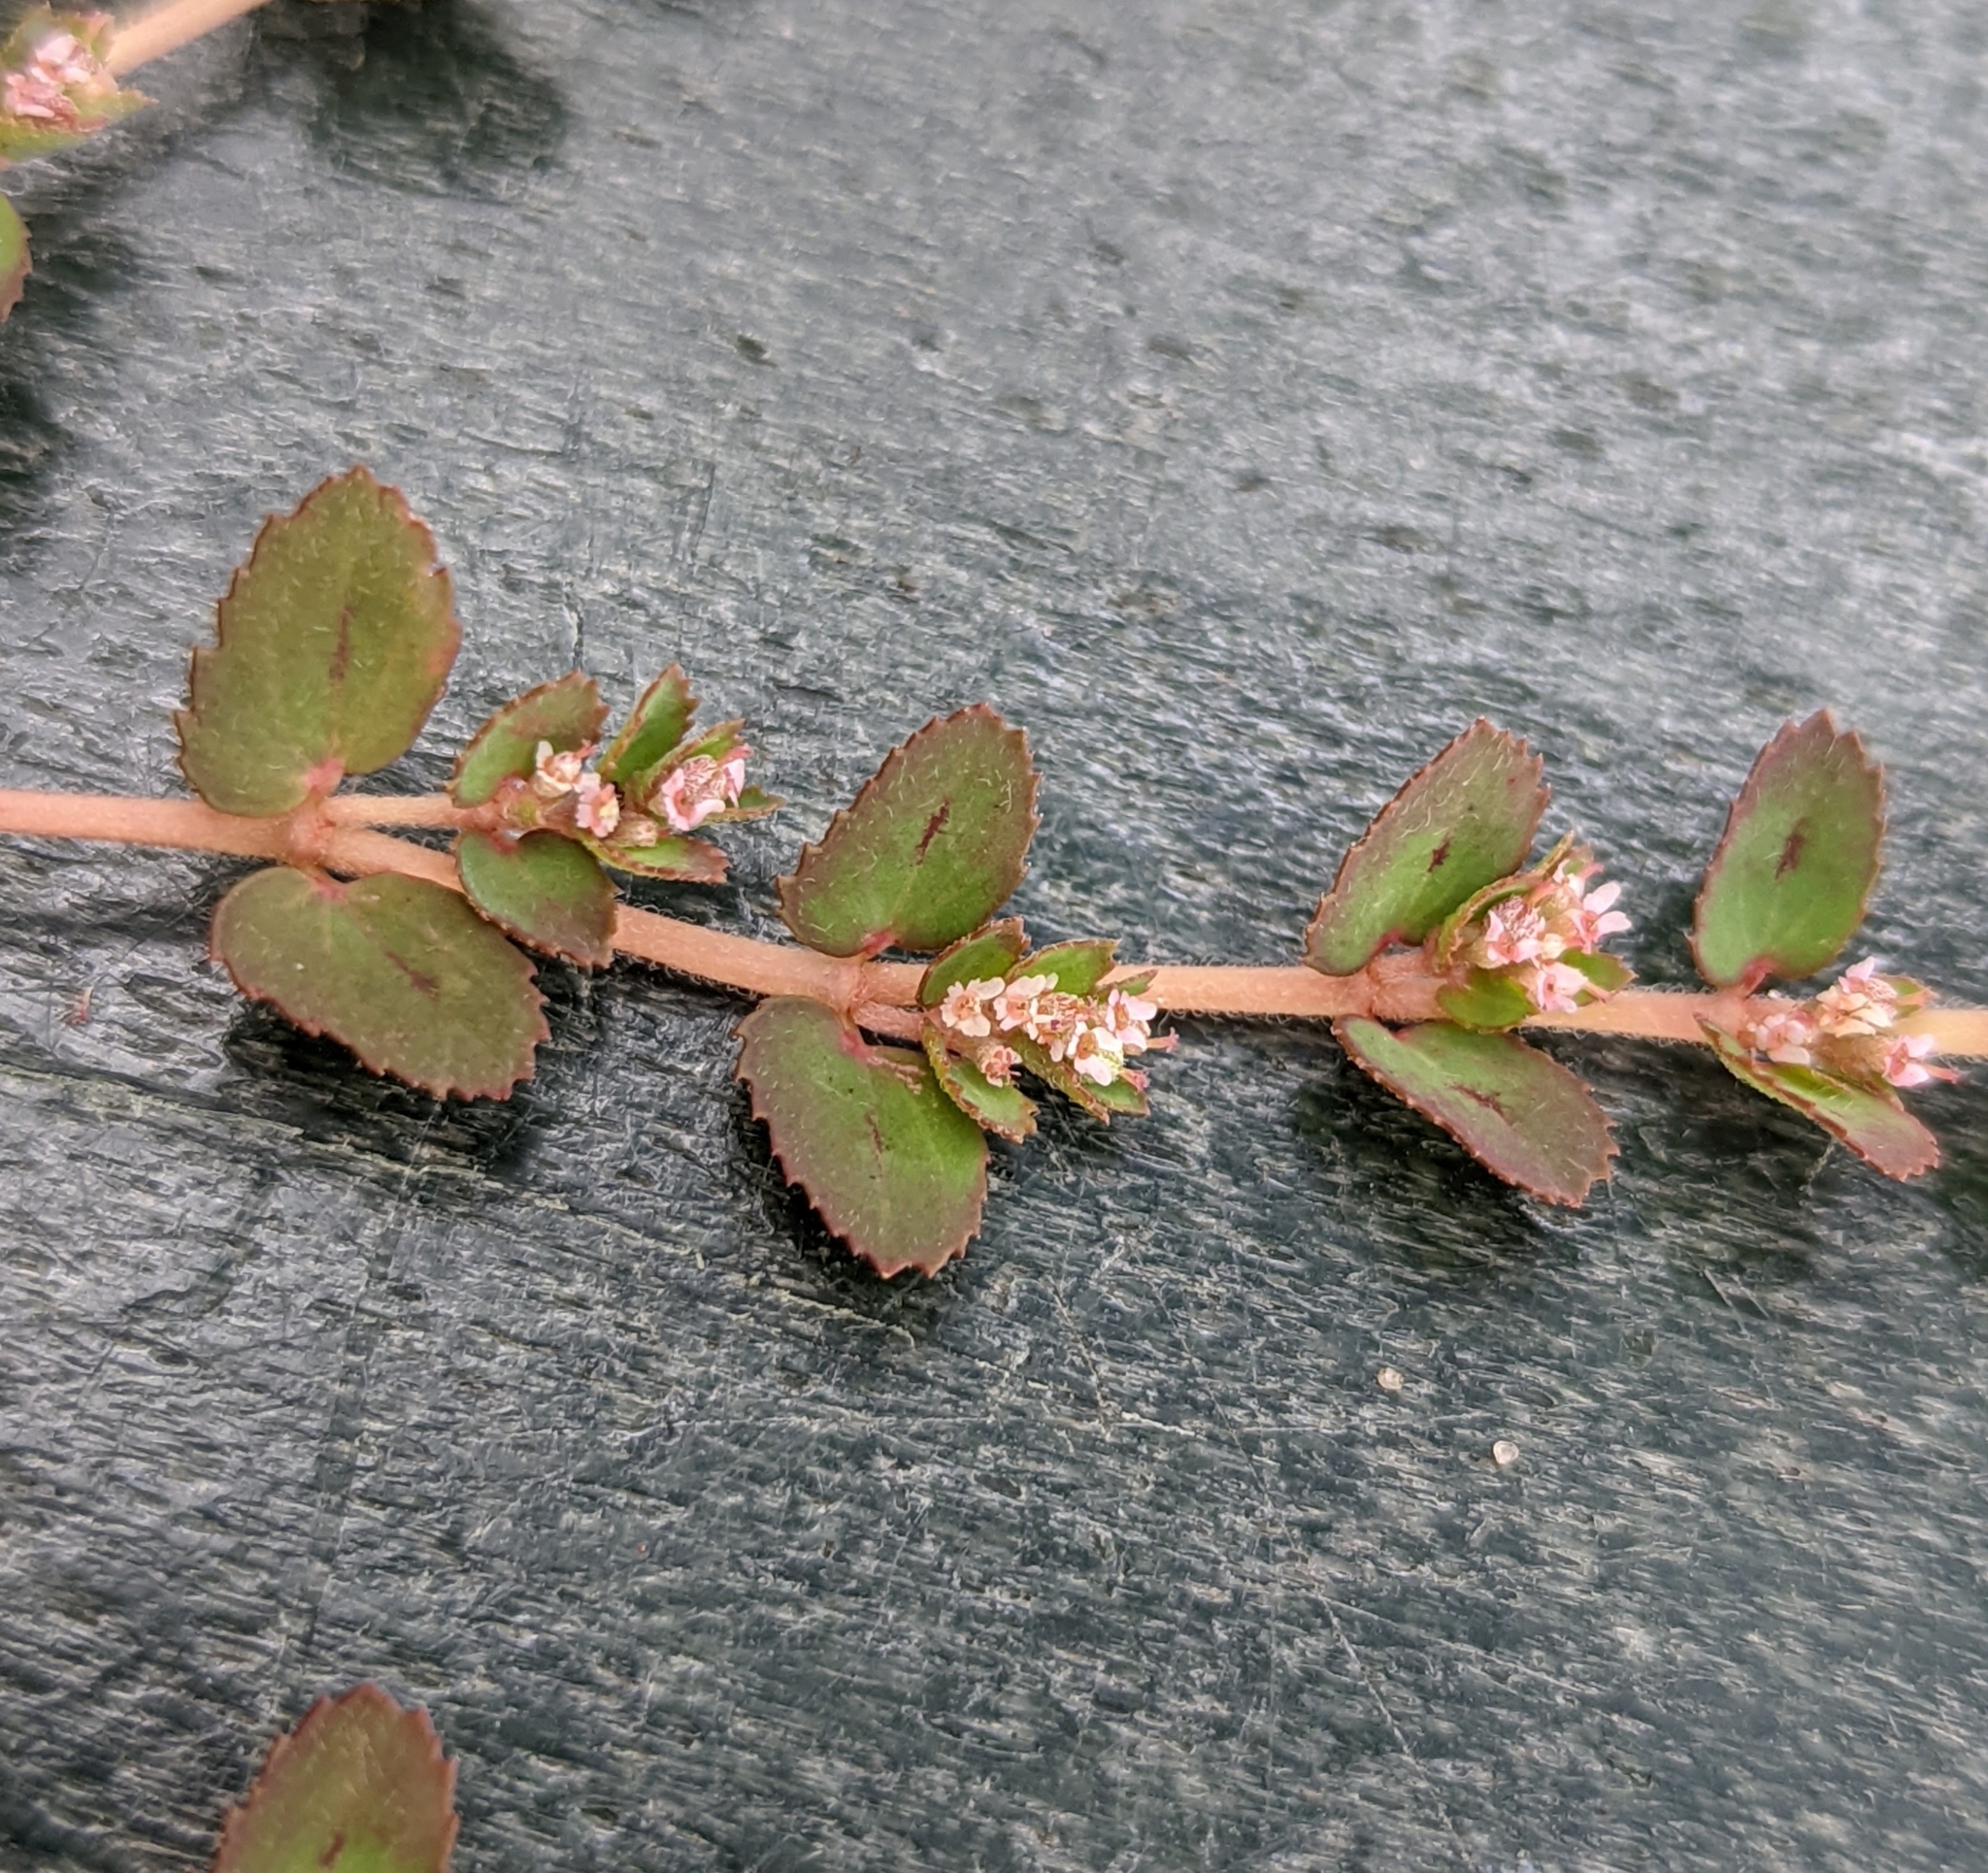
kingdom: Plantae
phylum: Tracheophyta
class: Magnoliopsida
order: Malpighiales
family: Euphorbiaceae
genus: Euphorbia
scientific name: Euphorbia thymifolia
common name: Gulf sandmat
